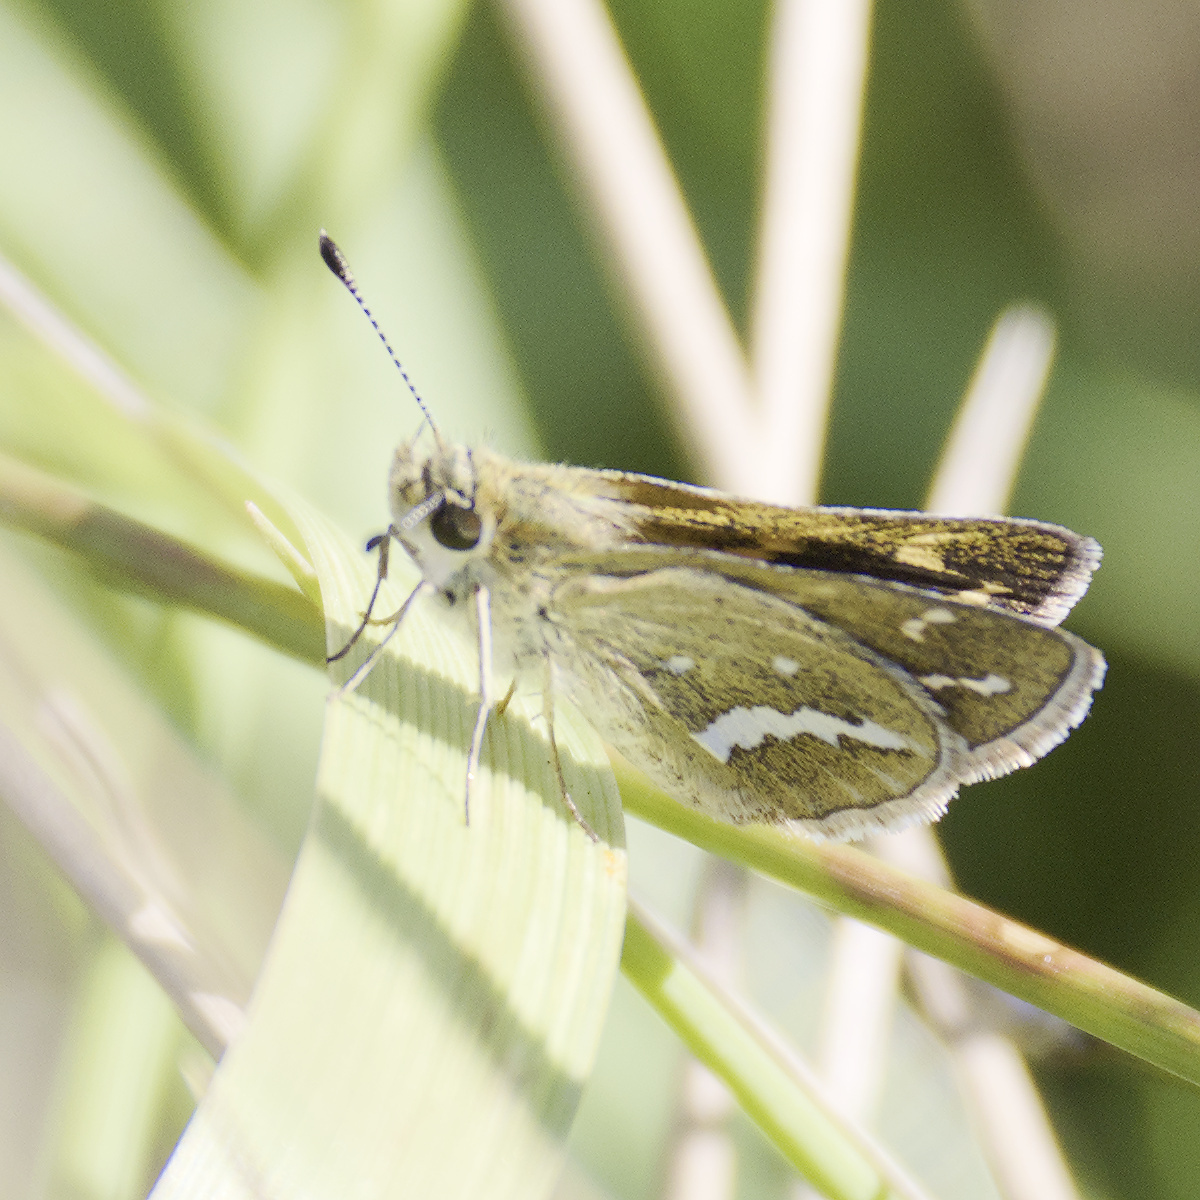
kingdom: Animalia
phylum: Arthropoda
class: Insecta
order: Lepidoptera
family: Hesperiidae
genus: Taractrocera
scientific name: Taractrocera papyria
